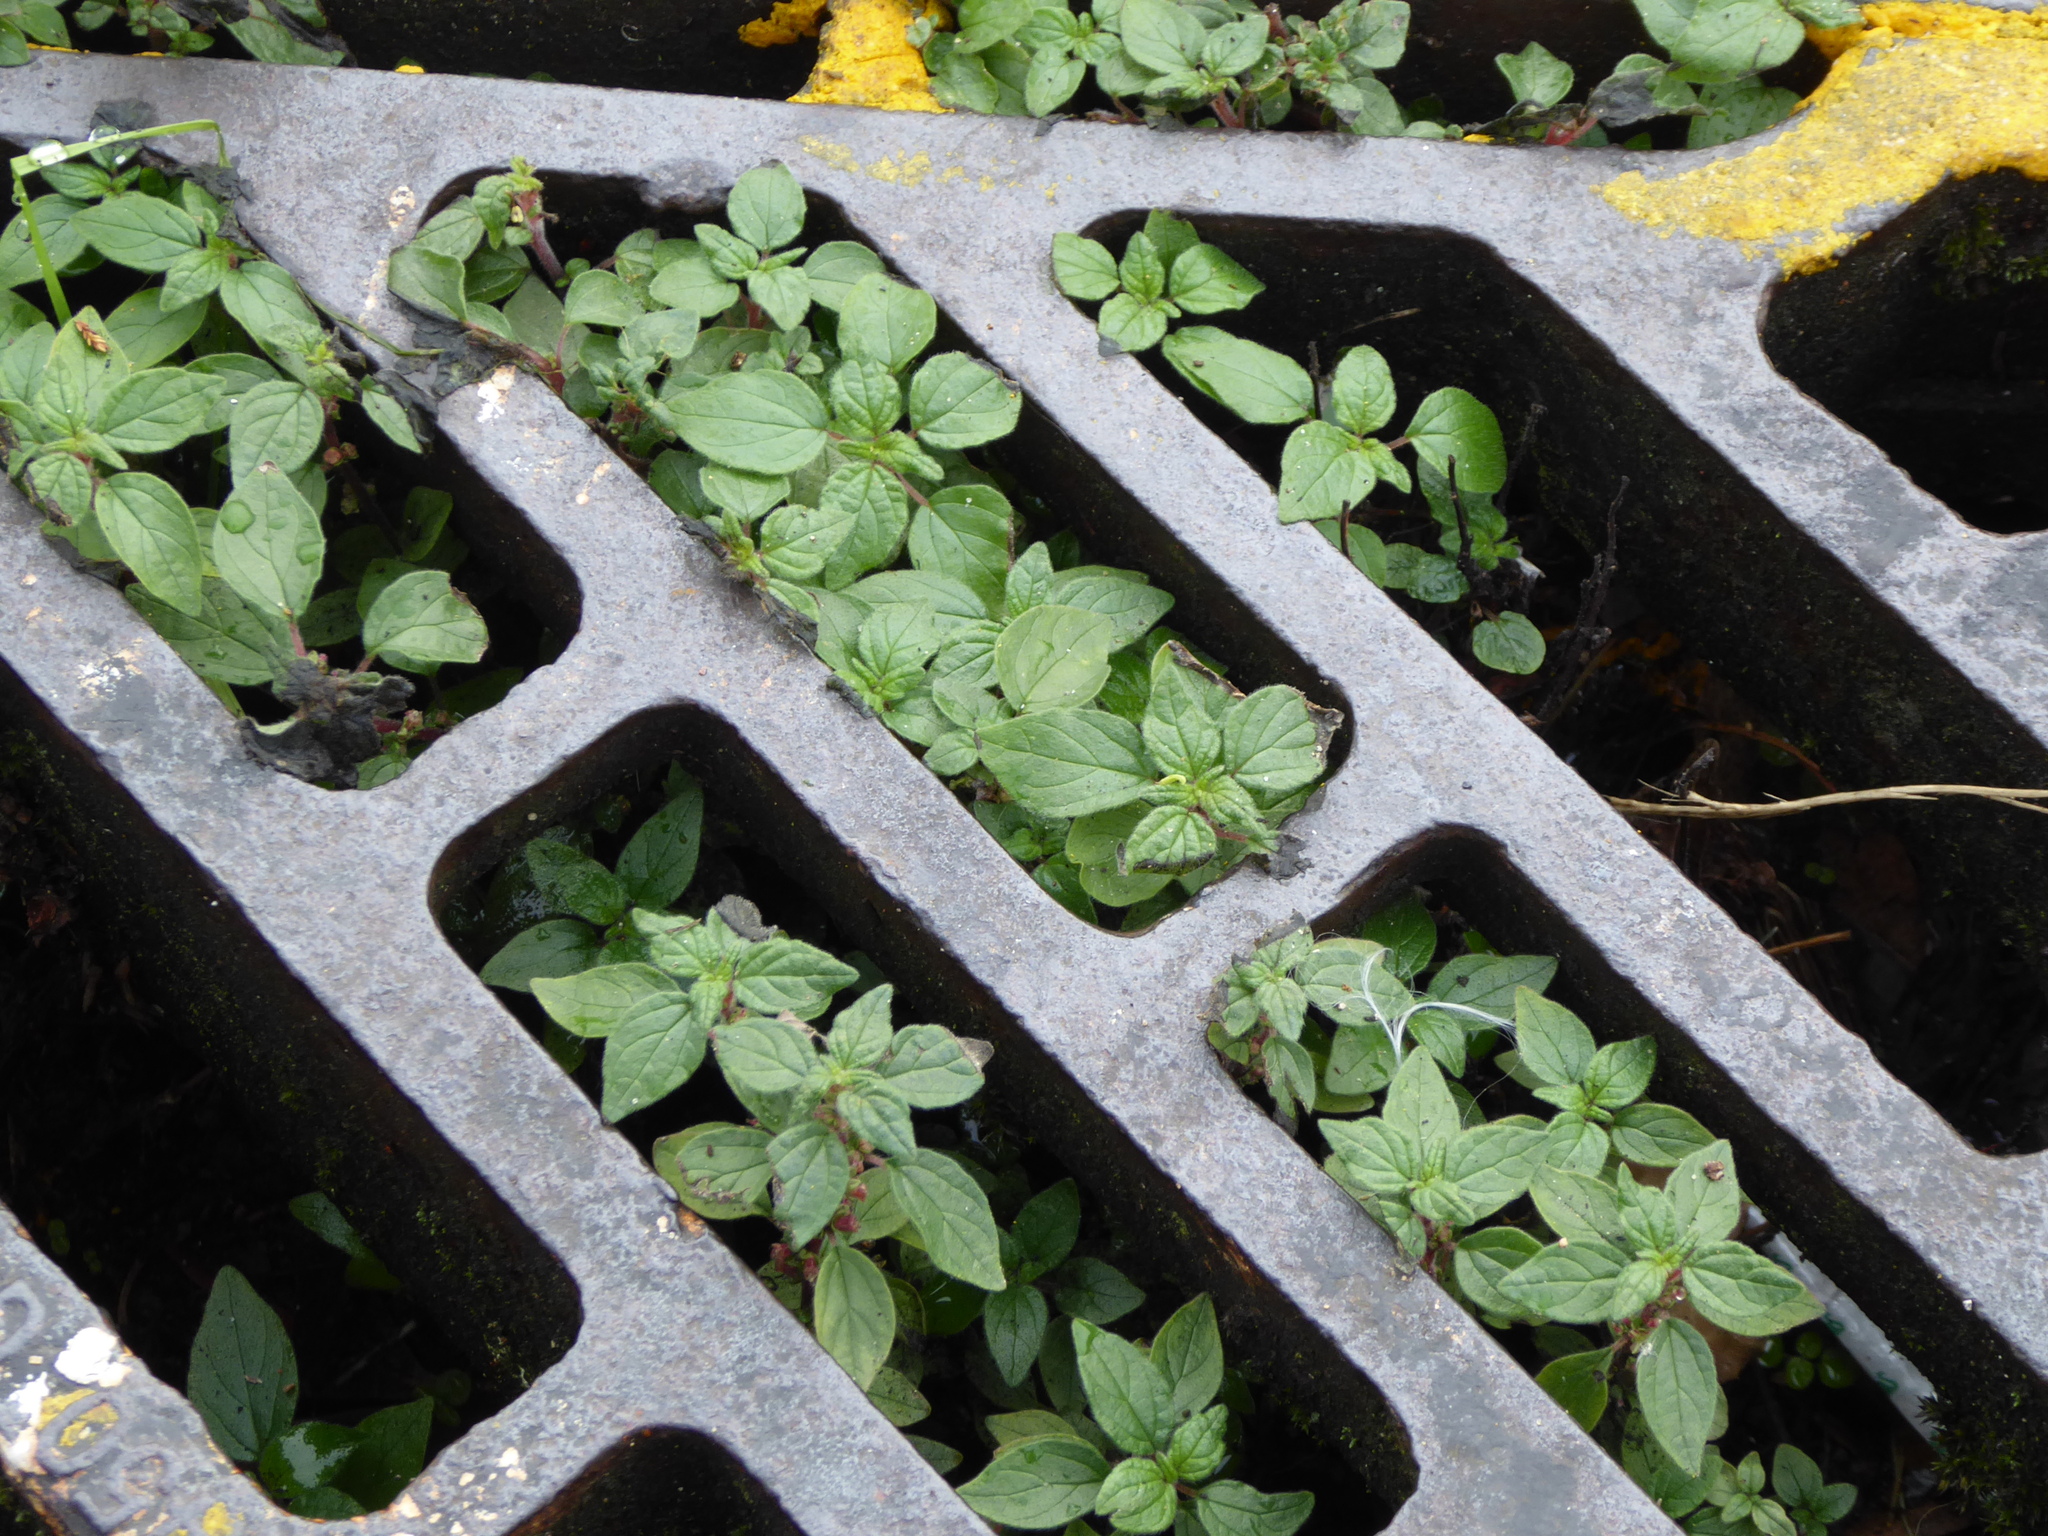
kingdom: Plantae
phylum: Tracheophyta
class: Magnoliopsida
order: Rosales
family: Urticaceae
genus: Parietaria
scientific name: Parietaria judaica
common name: Pellitory-of-the-wall
